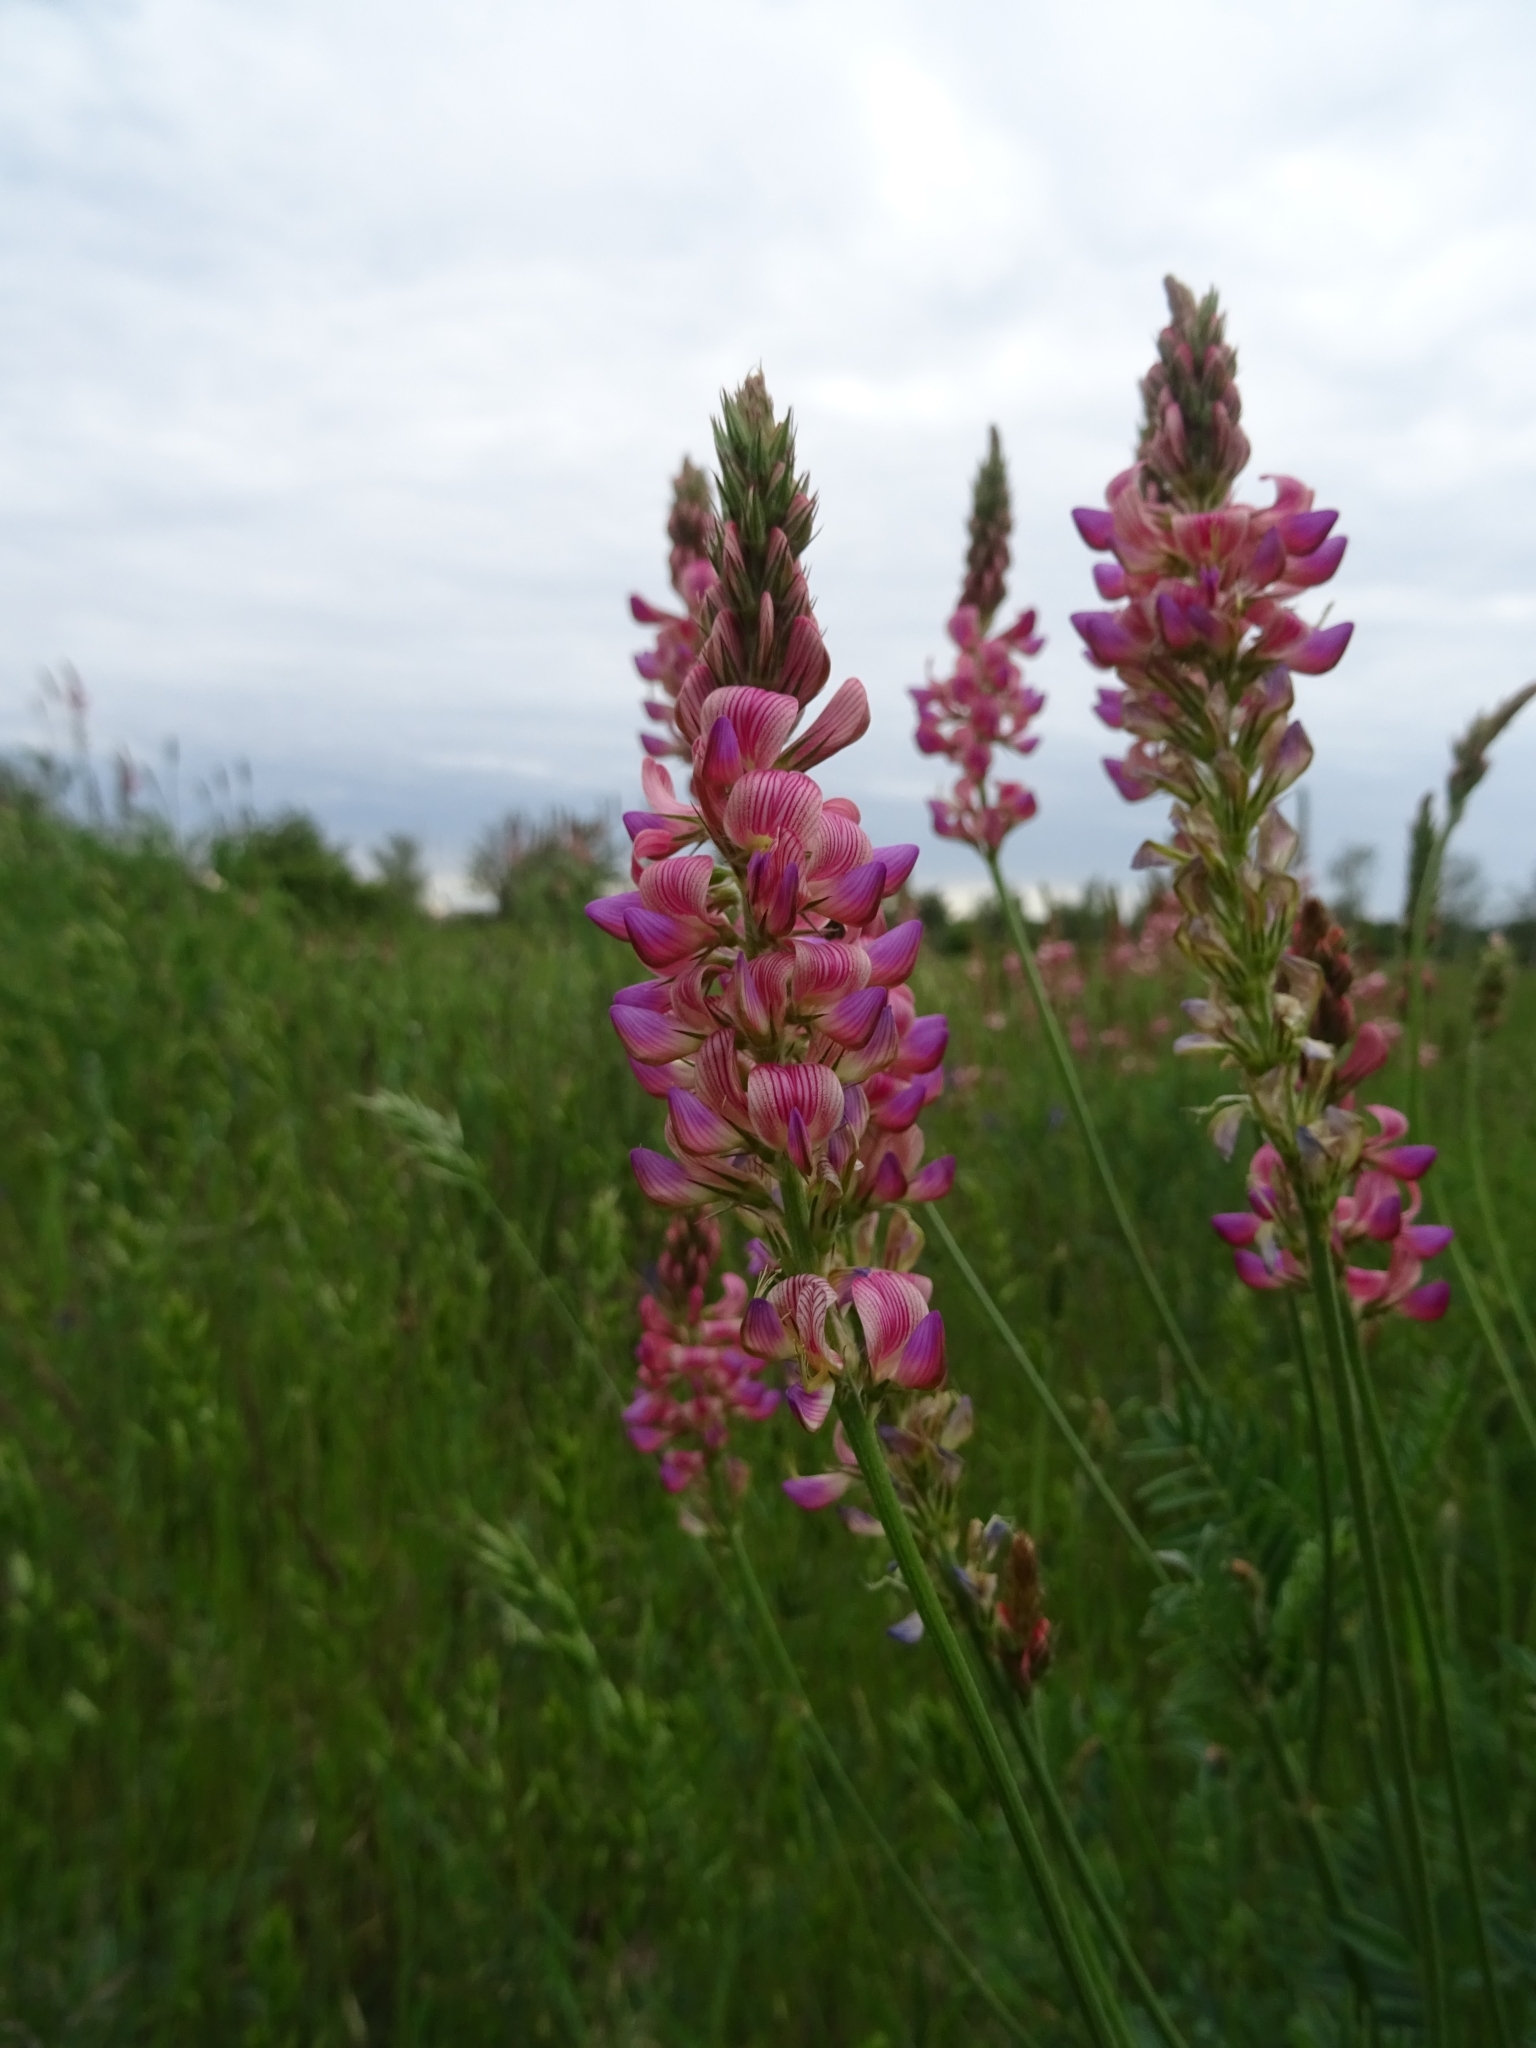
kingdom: Plantae
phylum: Tracheophyta
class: Magnoliopsida
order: Fabales
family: Fabaceae
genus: Onobrychis
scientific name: Onobrychis viciifolia
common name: Sainfoin
